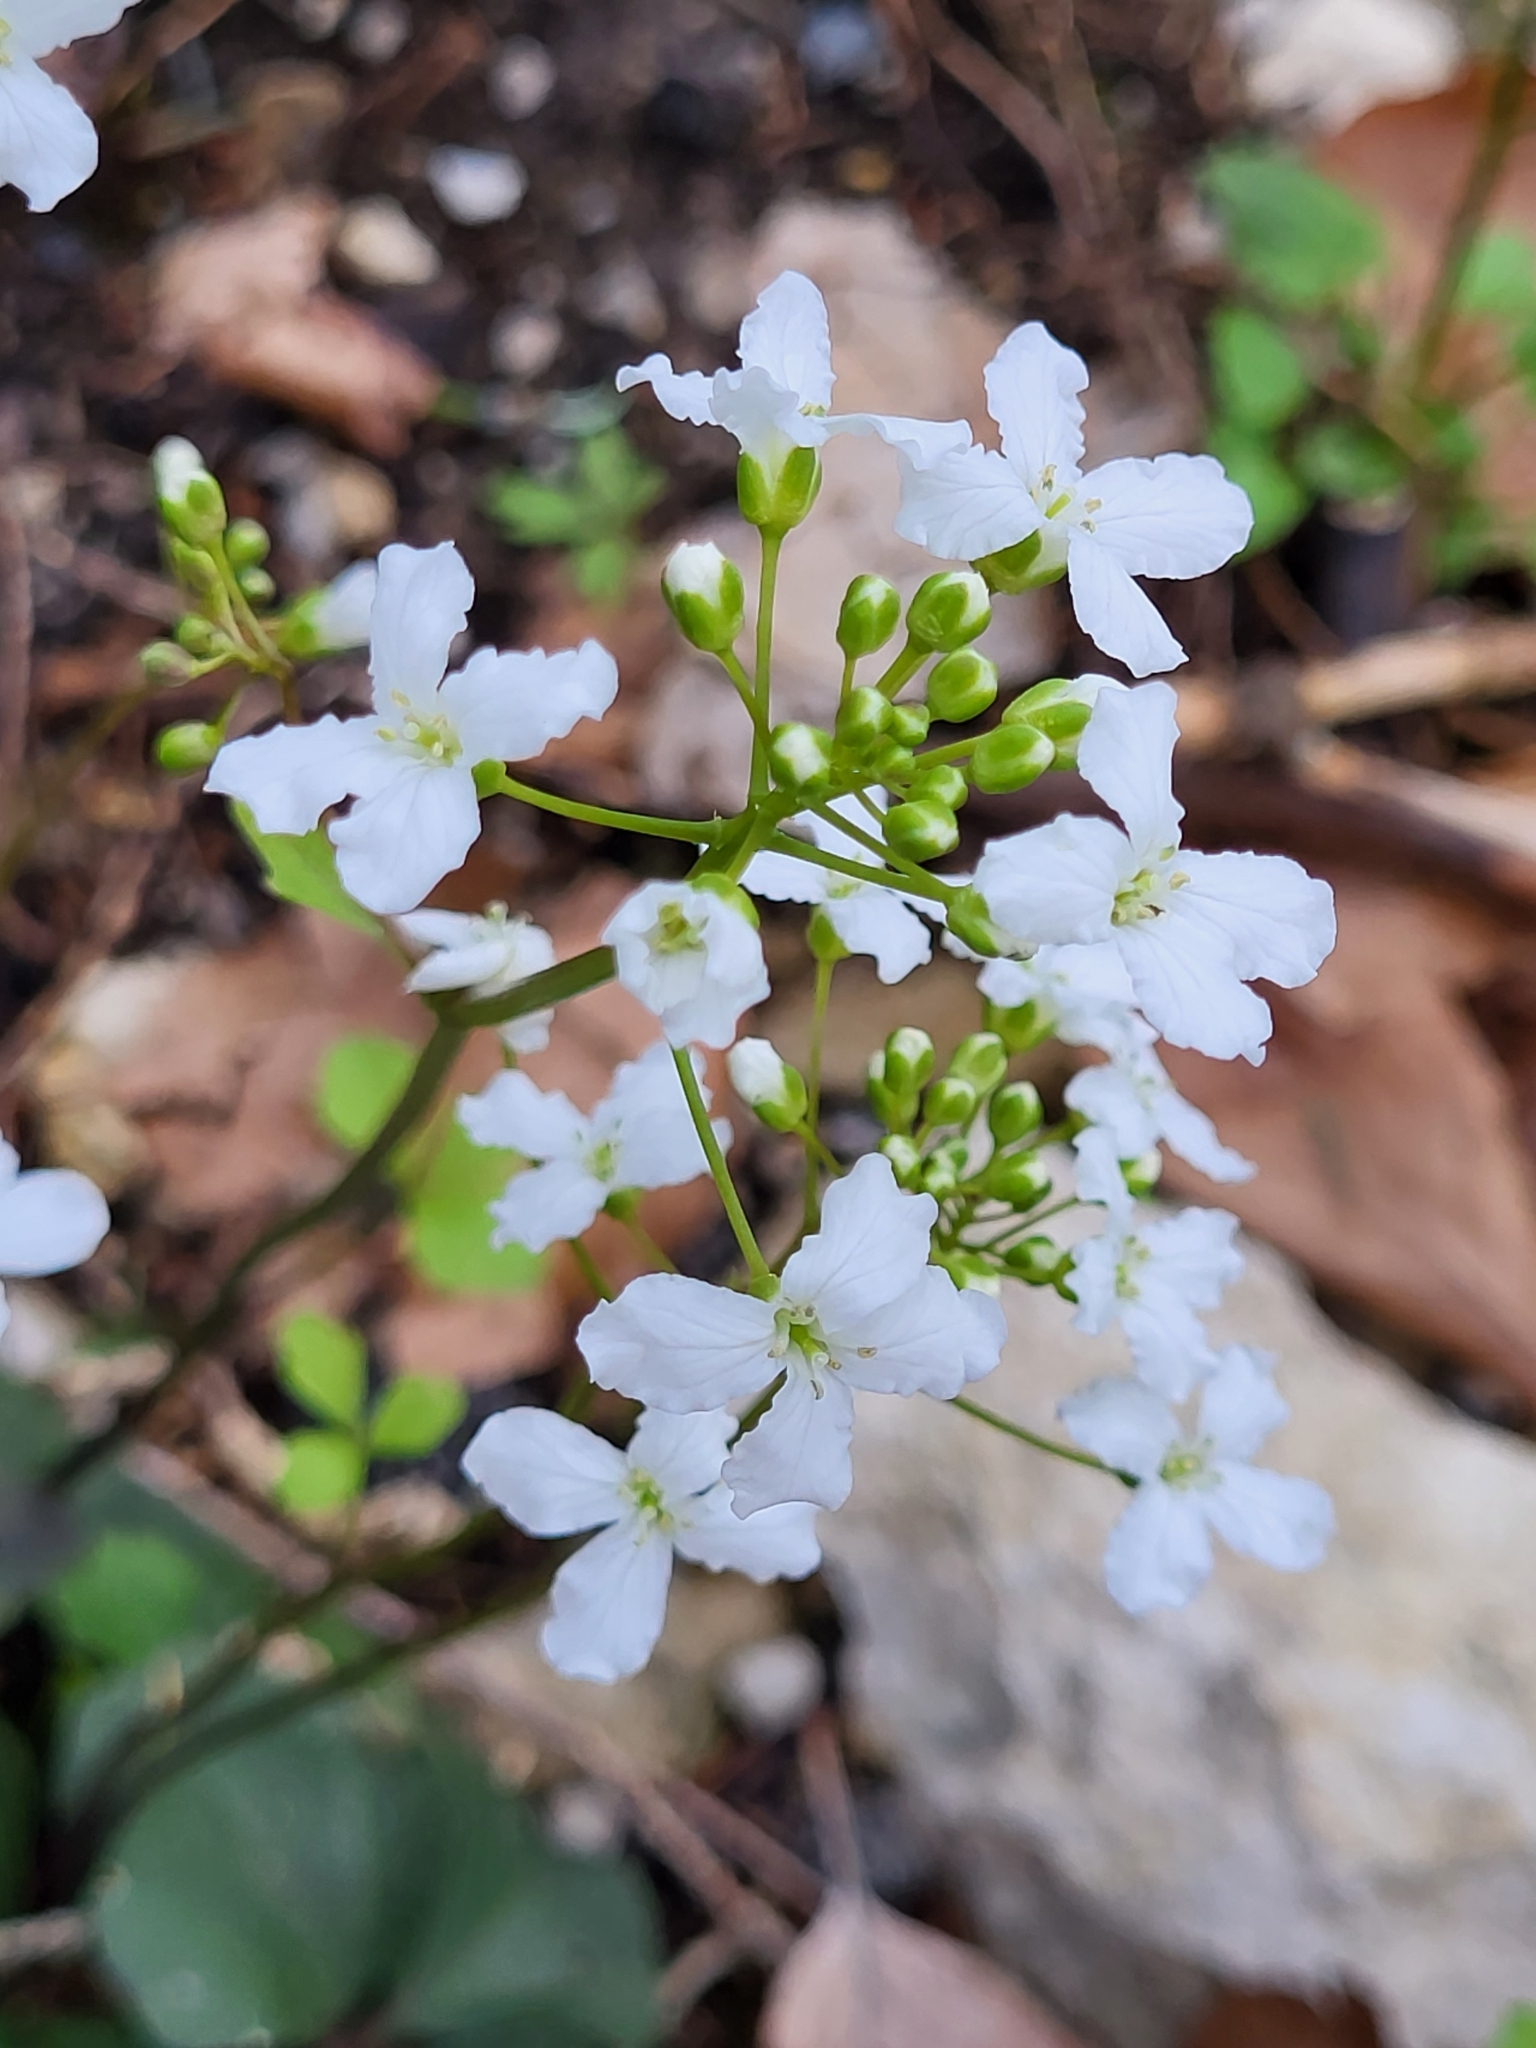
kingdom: Plantae
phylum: Tracheophyta
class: Magnoliopsida
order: Brassicales
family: Brassicaceae
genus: Cardamine
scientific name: Cardamine trifolia
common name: Trefoil cress
